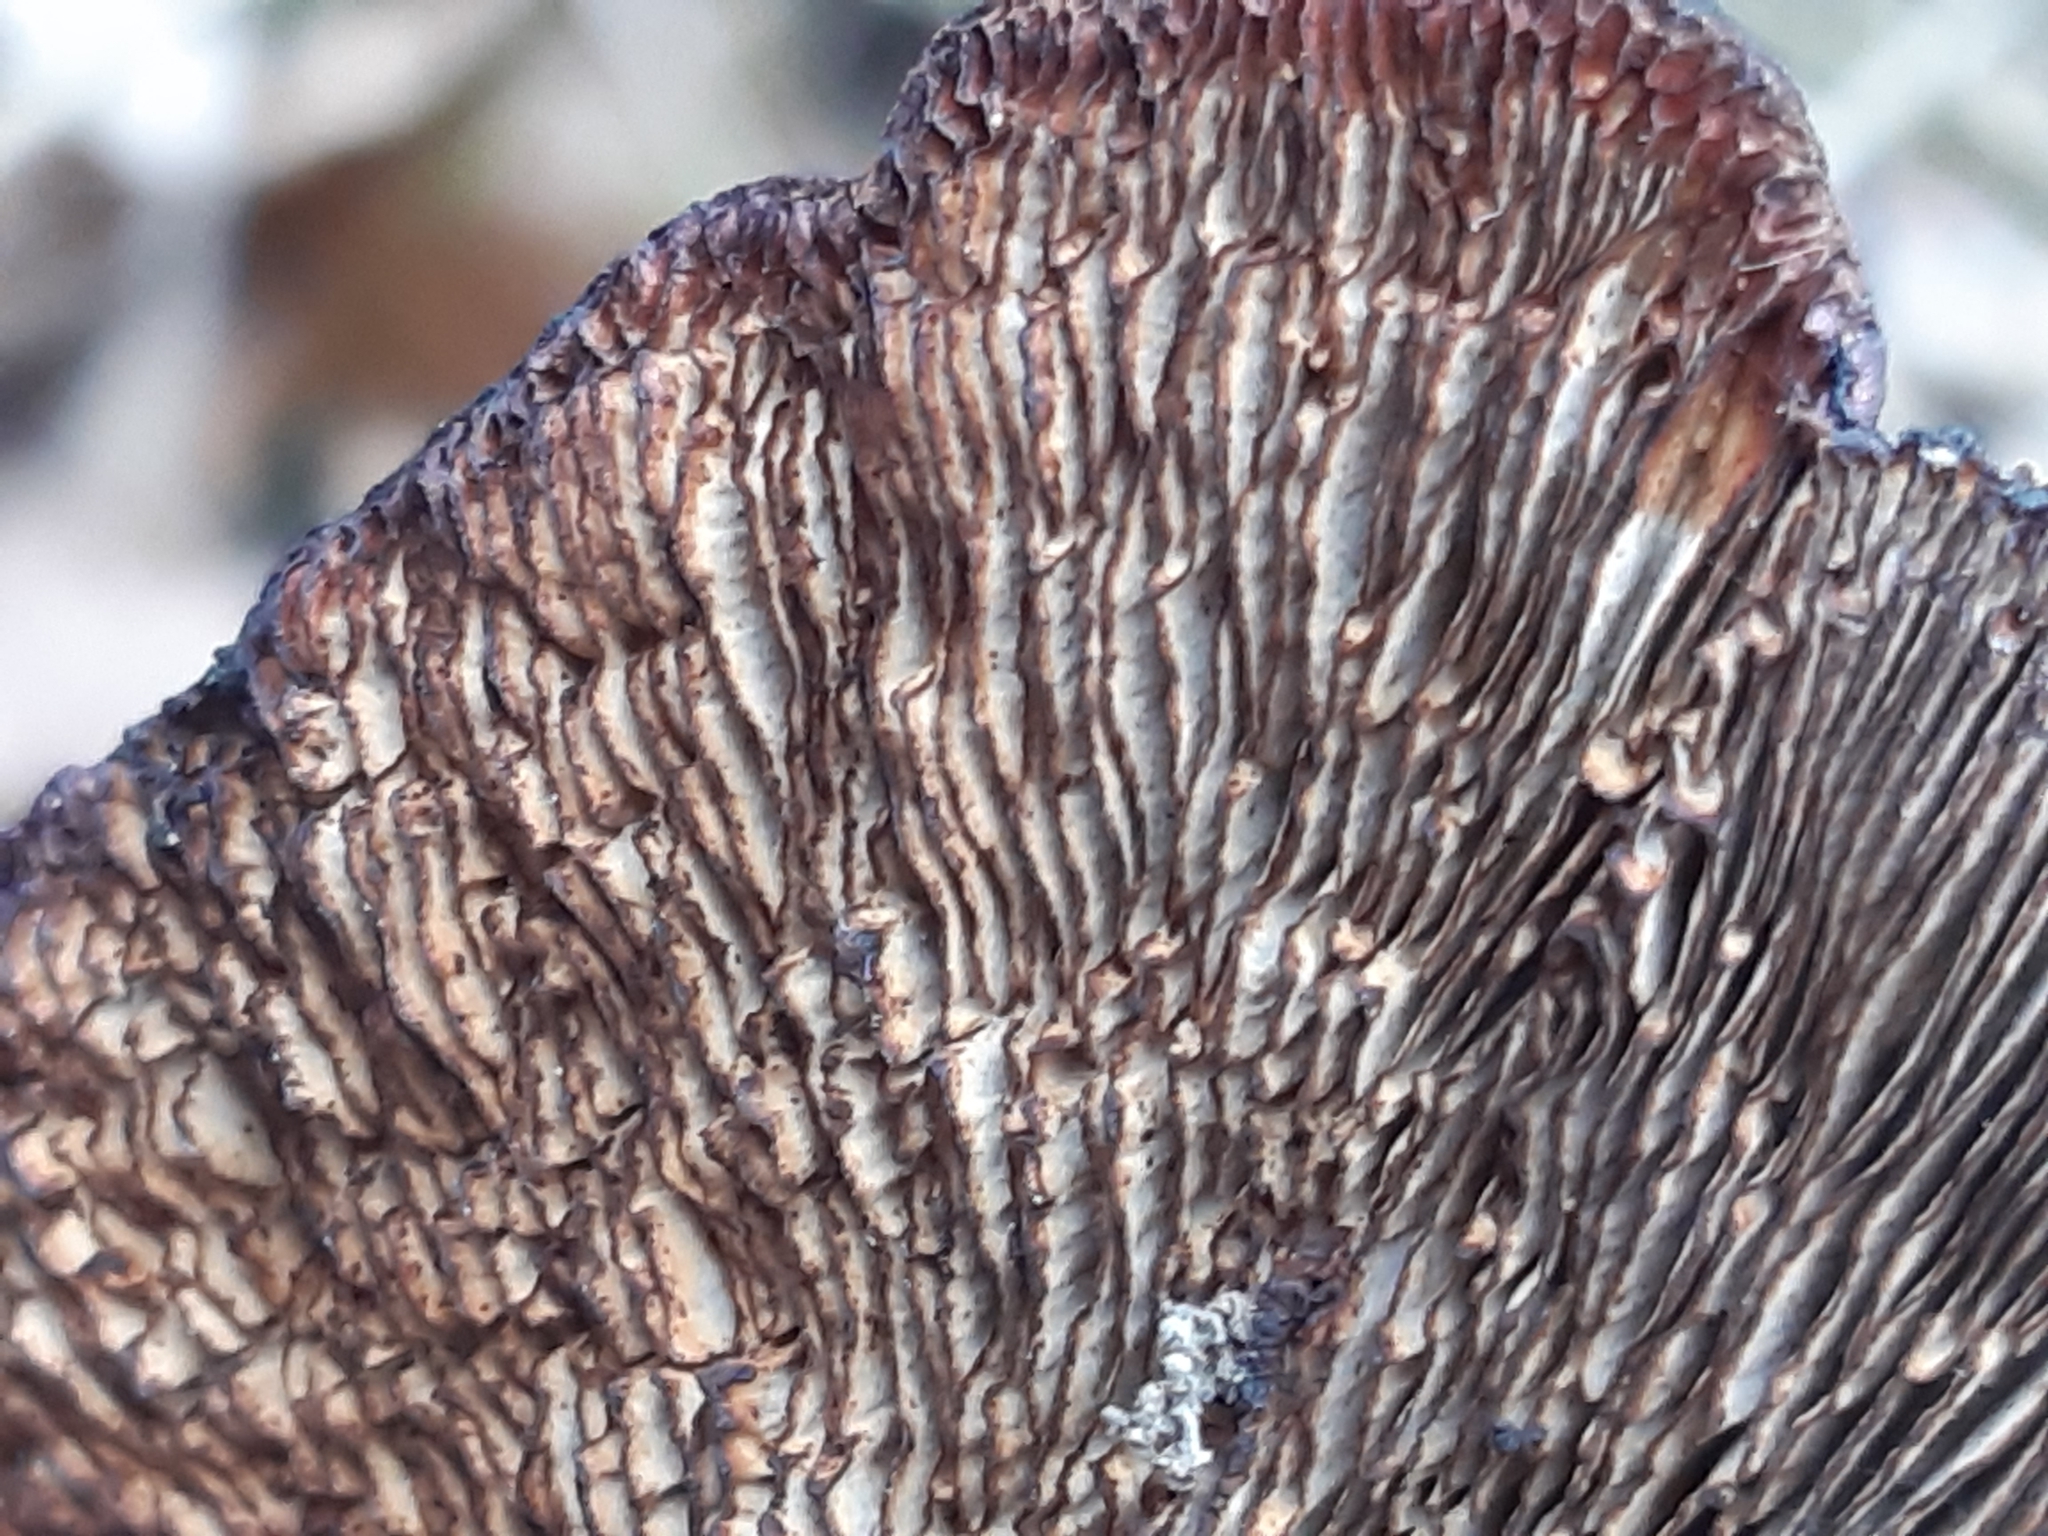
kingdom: Fungi
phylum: Basidiomycota
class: Agaricomycetes
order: Polyporales
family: Polyporaceae
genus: Daedaleopsis
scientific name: Daedaleopsis tricolor
